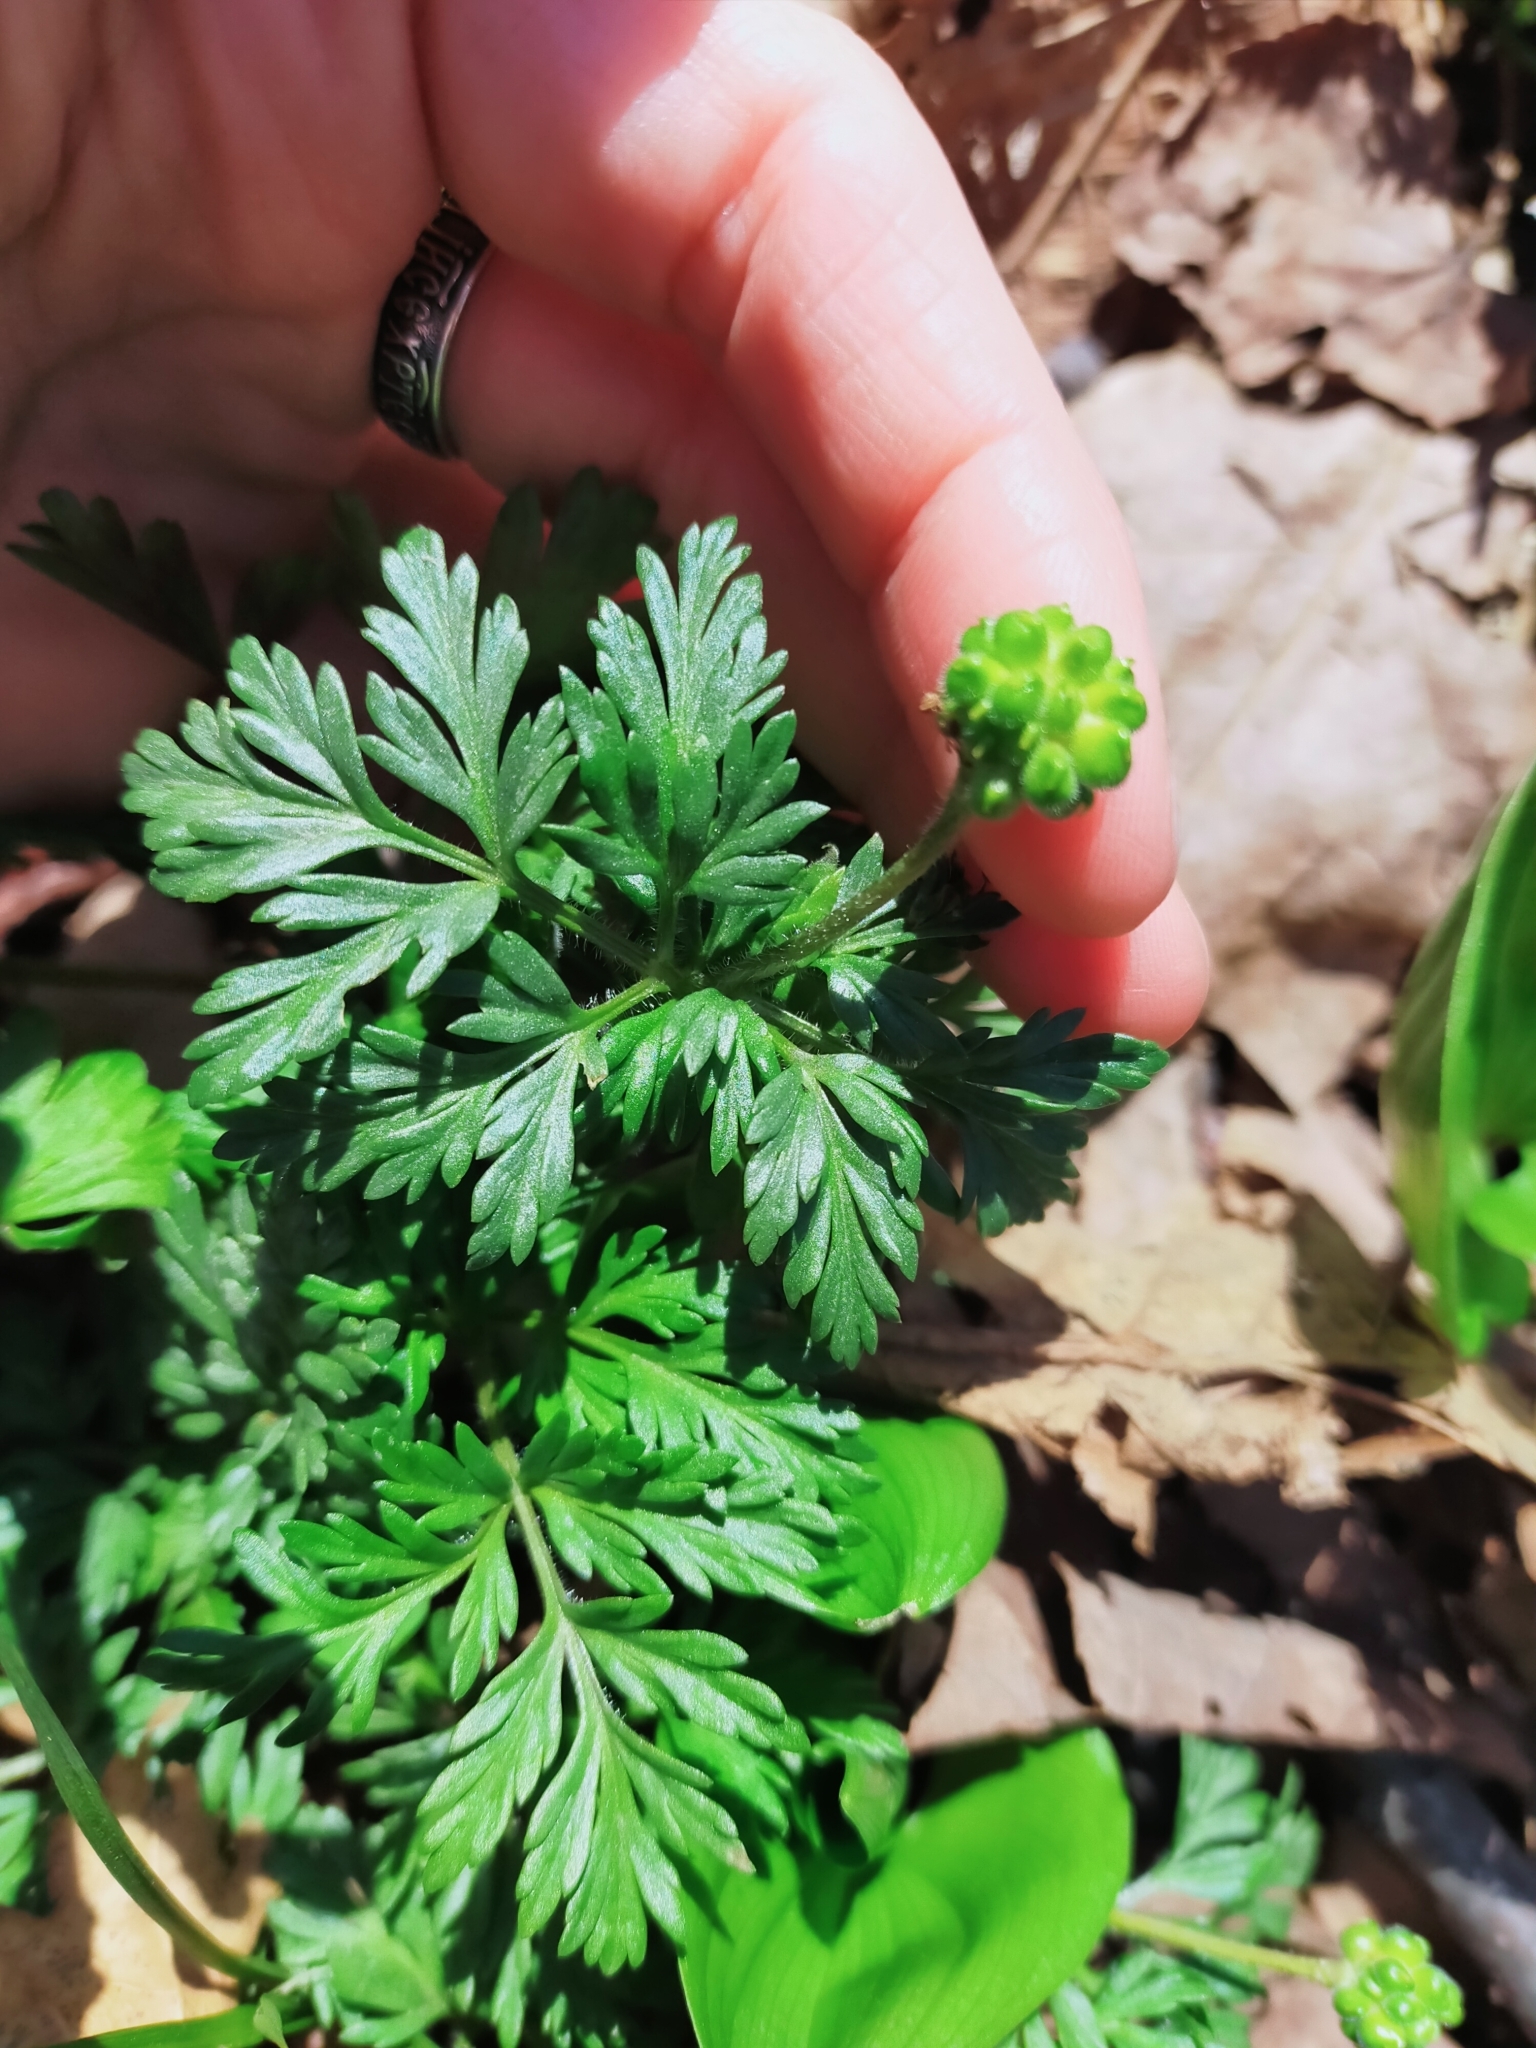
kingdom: Plantae
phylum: Tracheophyta
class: Magnoliopsida
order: Ranunculales
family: Ranunculaceae
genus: Adonis
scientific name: Adonis amurensis
